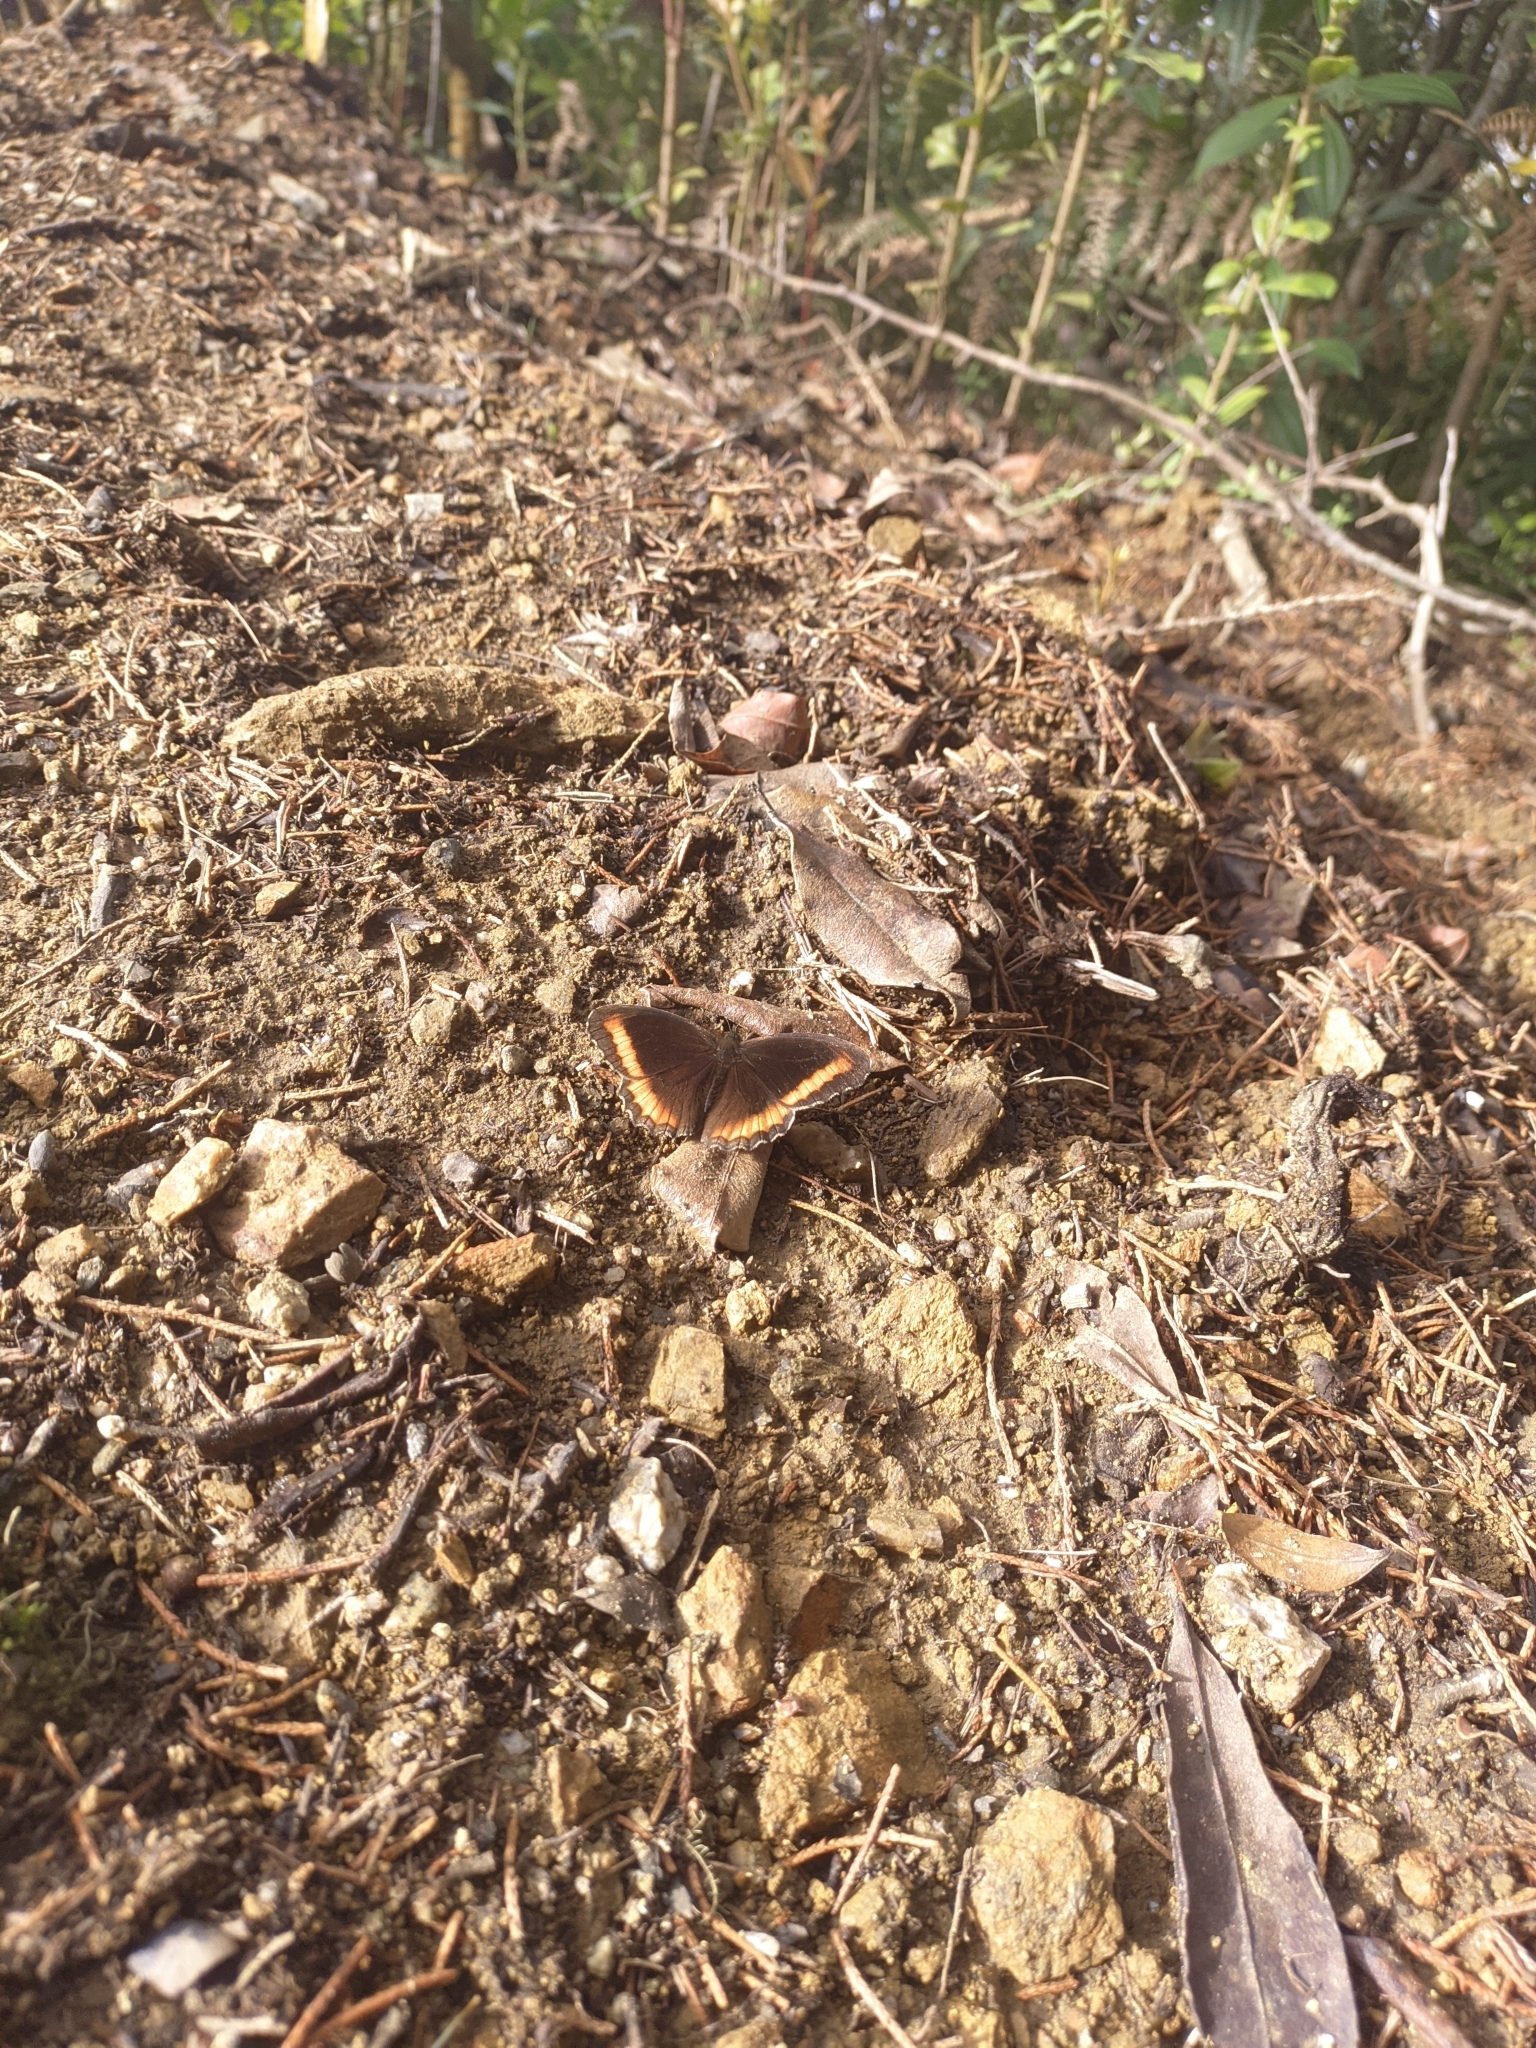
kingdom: Animalia
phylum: Arthropoda
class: Insecta
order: Lepidoptera
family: Nymphalidae
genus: Pedaliodes
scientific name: Pedaliodes
